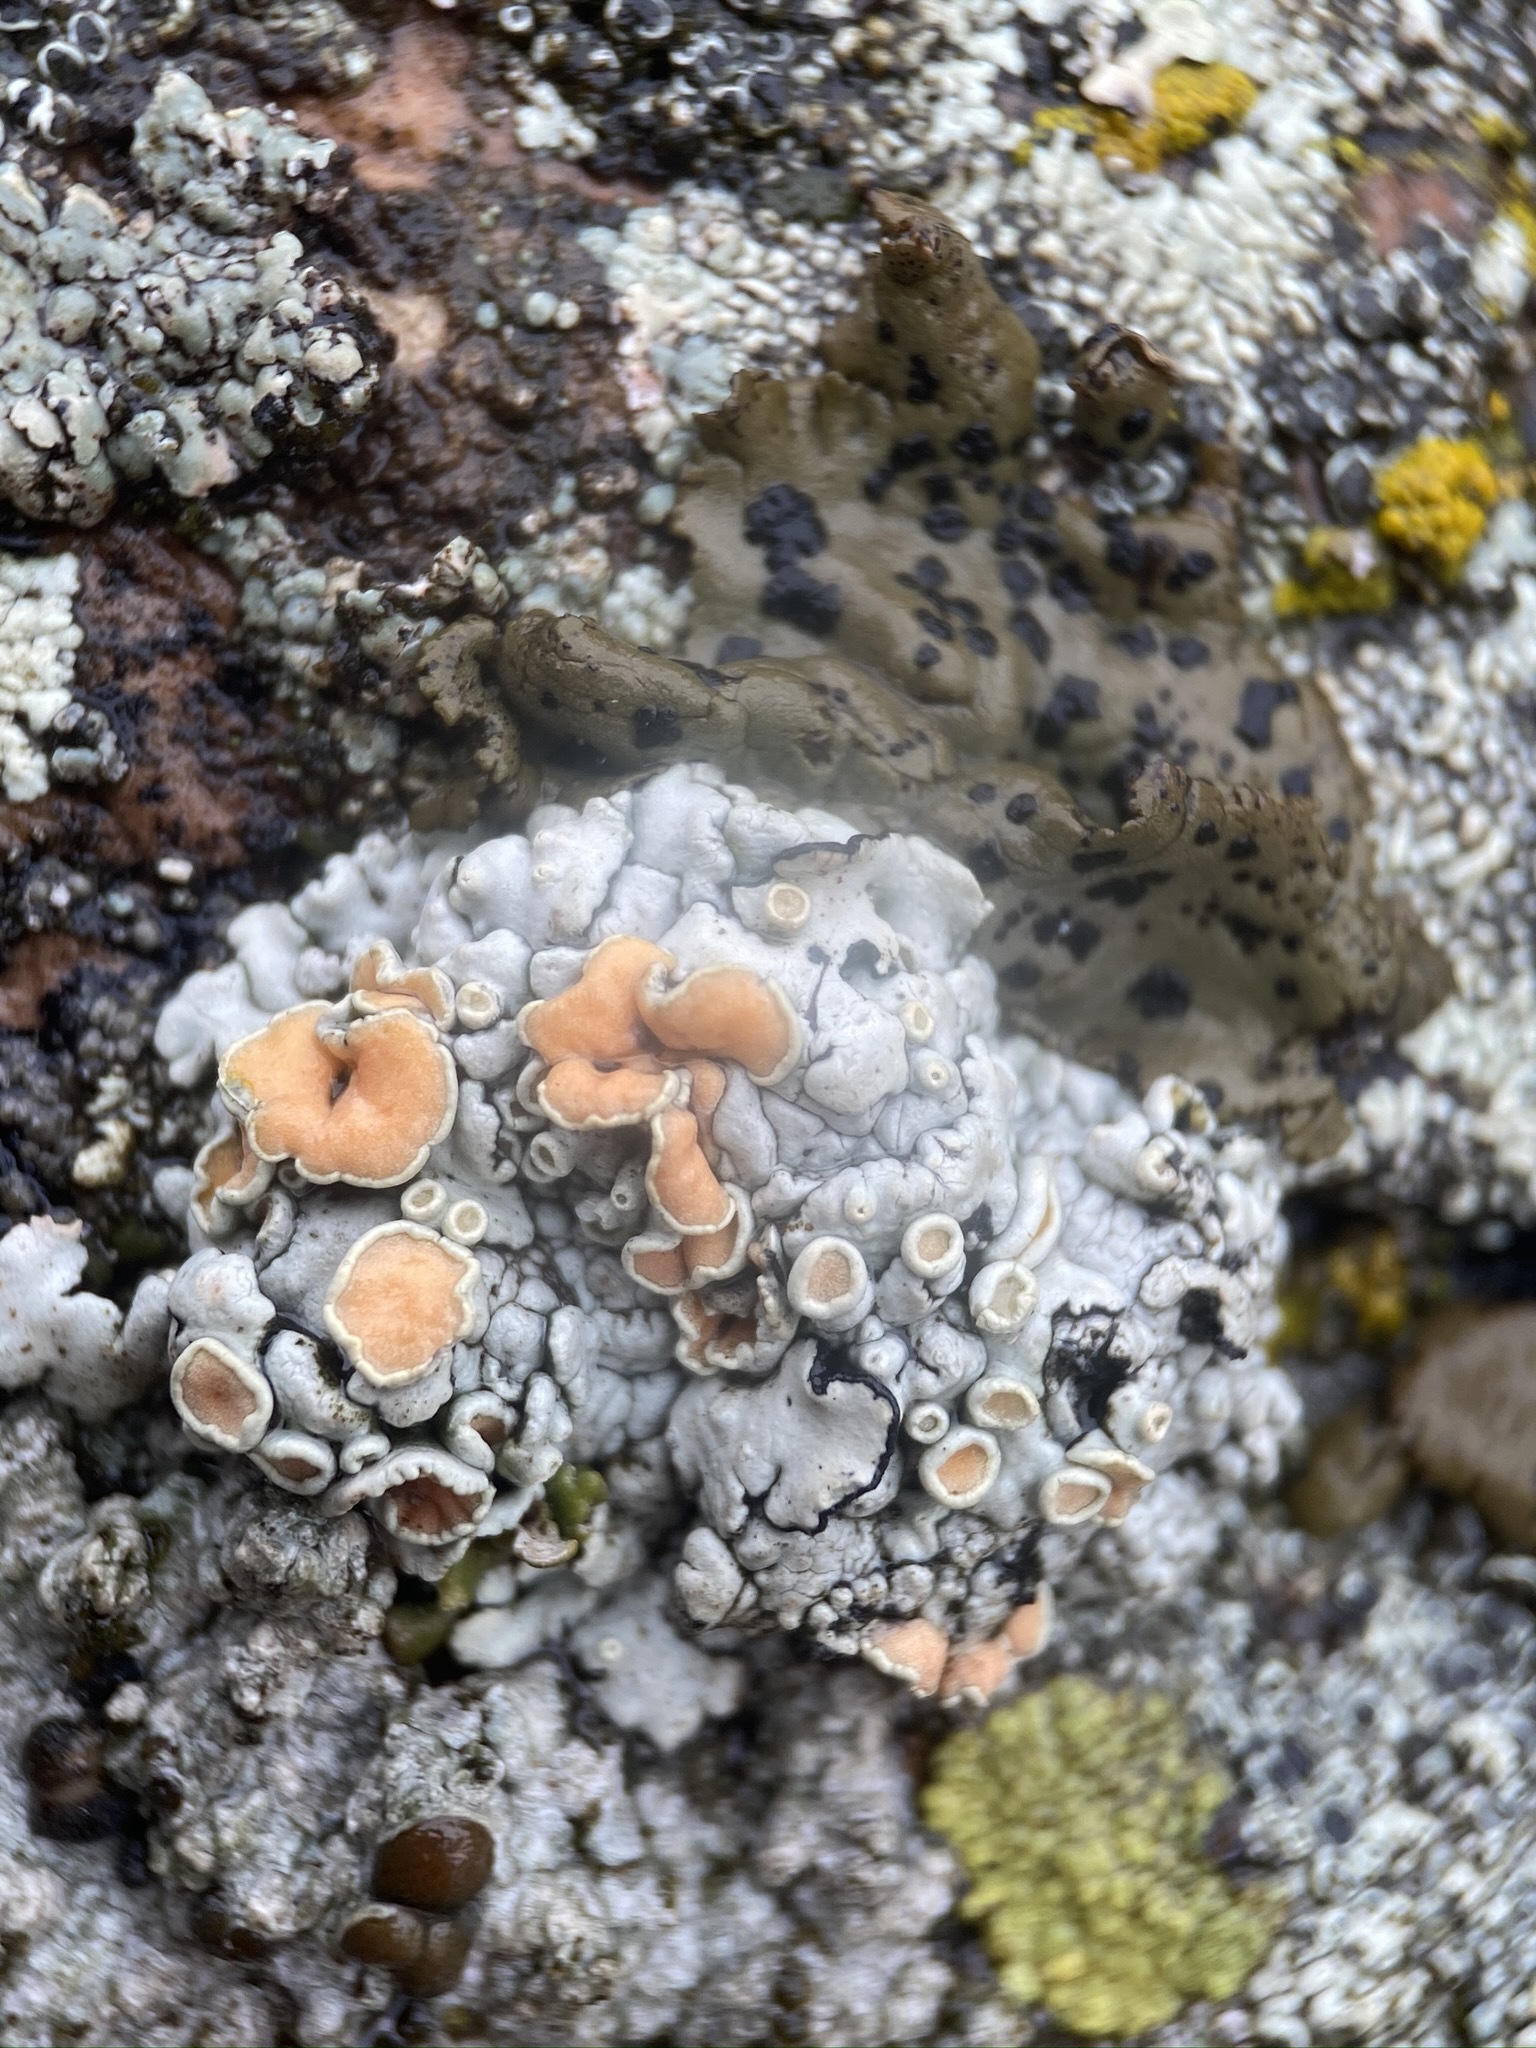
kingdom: Fungi
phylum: Ascomycota
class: Lecanoromycetes
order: Lecanorales
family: Lecanoraceae
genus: Omphalodina
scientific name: Omphalodina chrysoleuca
